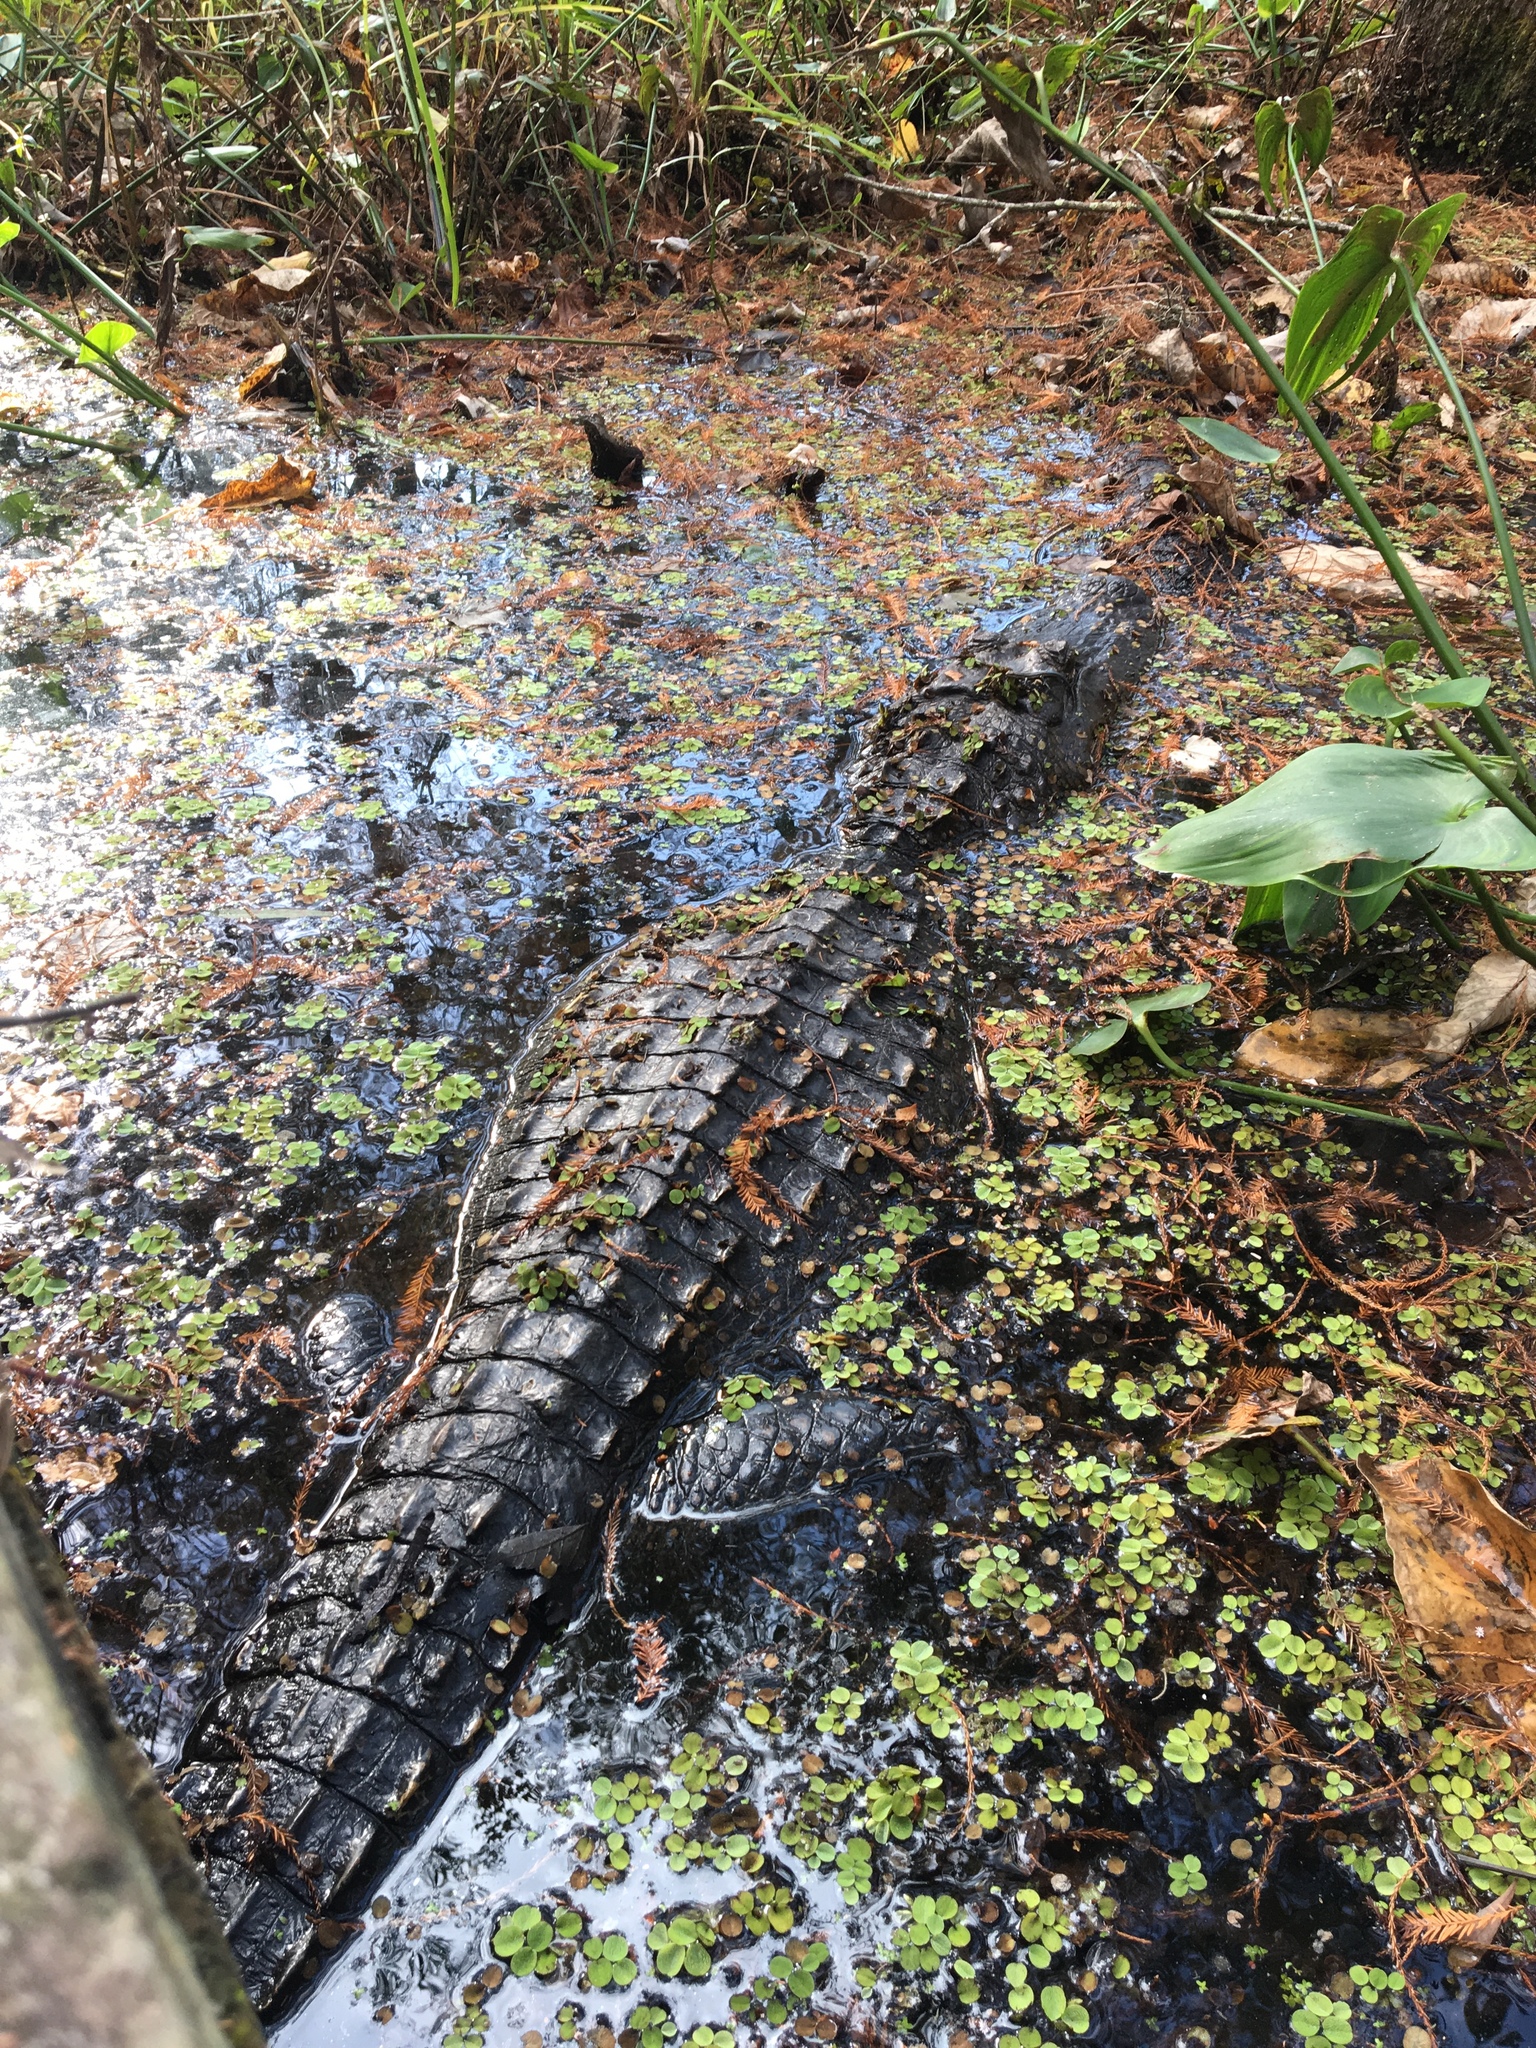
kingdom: Animalia
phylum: Chordata
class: Crocodylia
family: Alligatoridae
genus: Alligator
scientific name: Alligator mississippiensis
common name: American alligator
